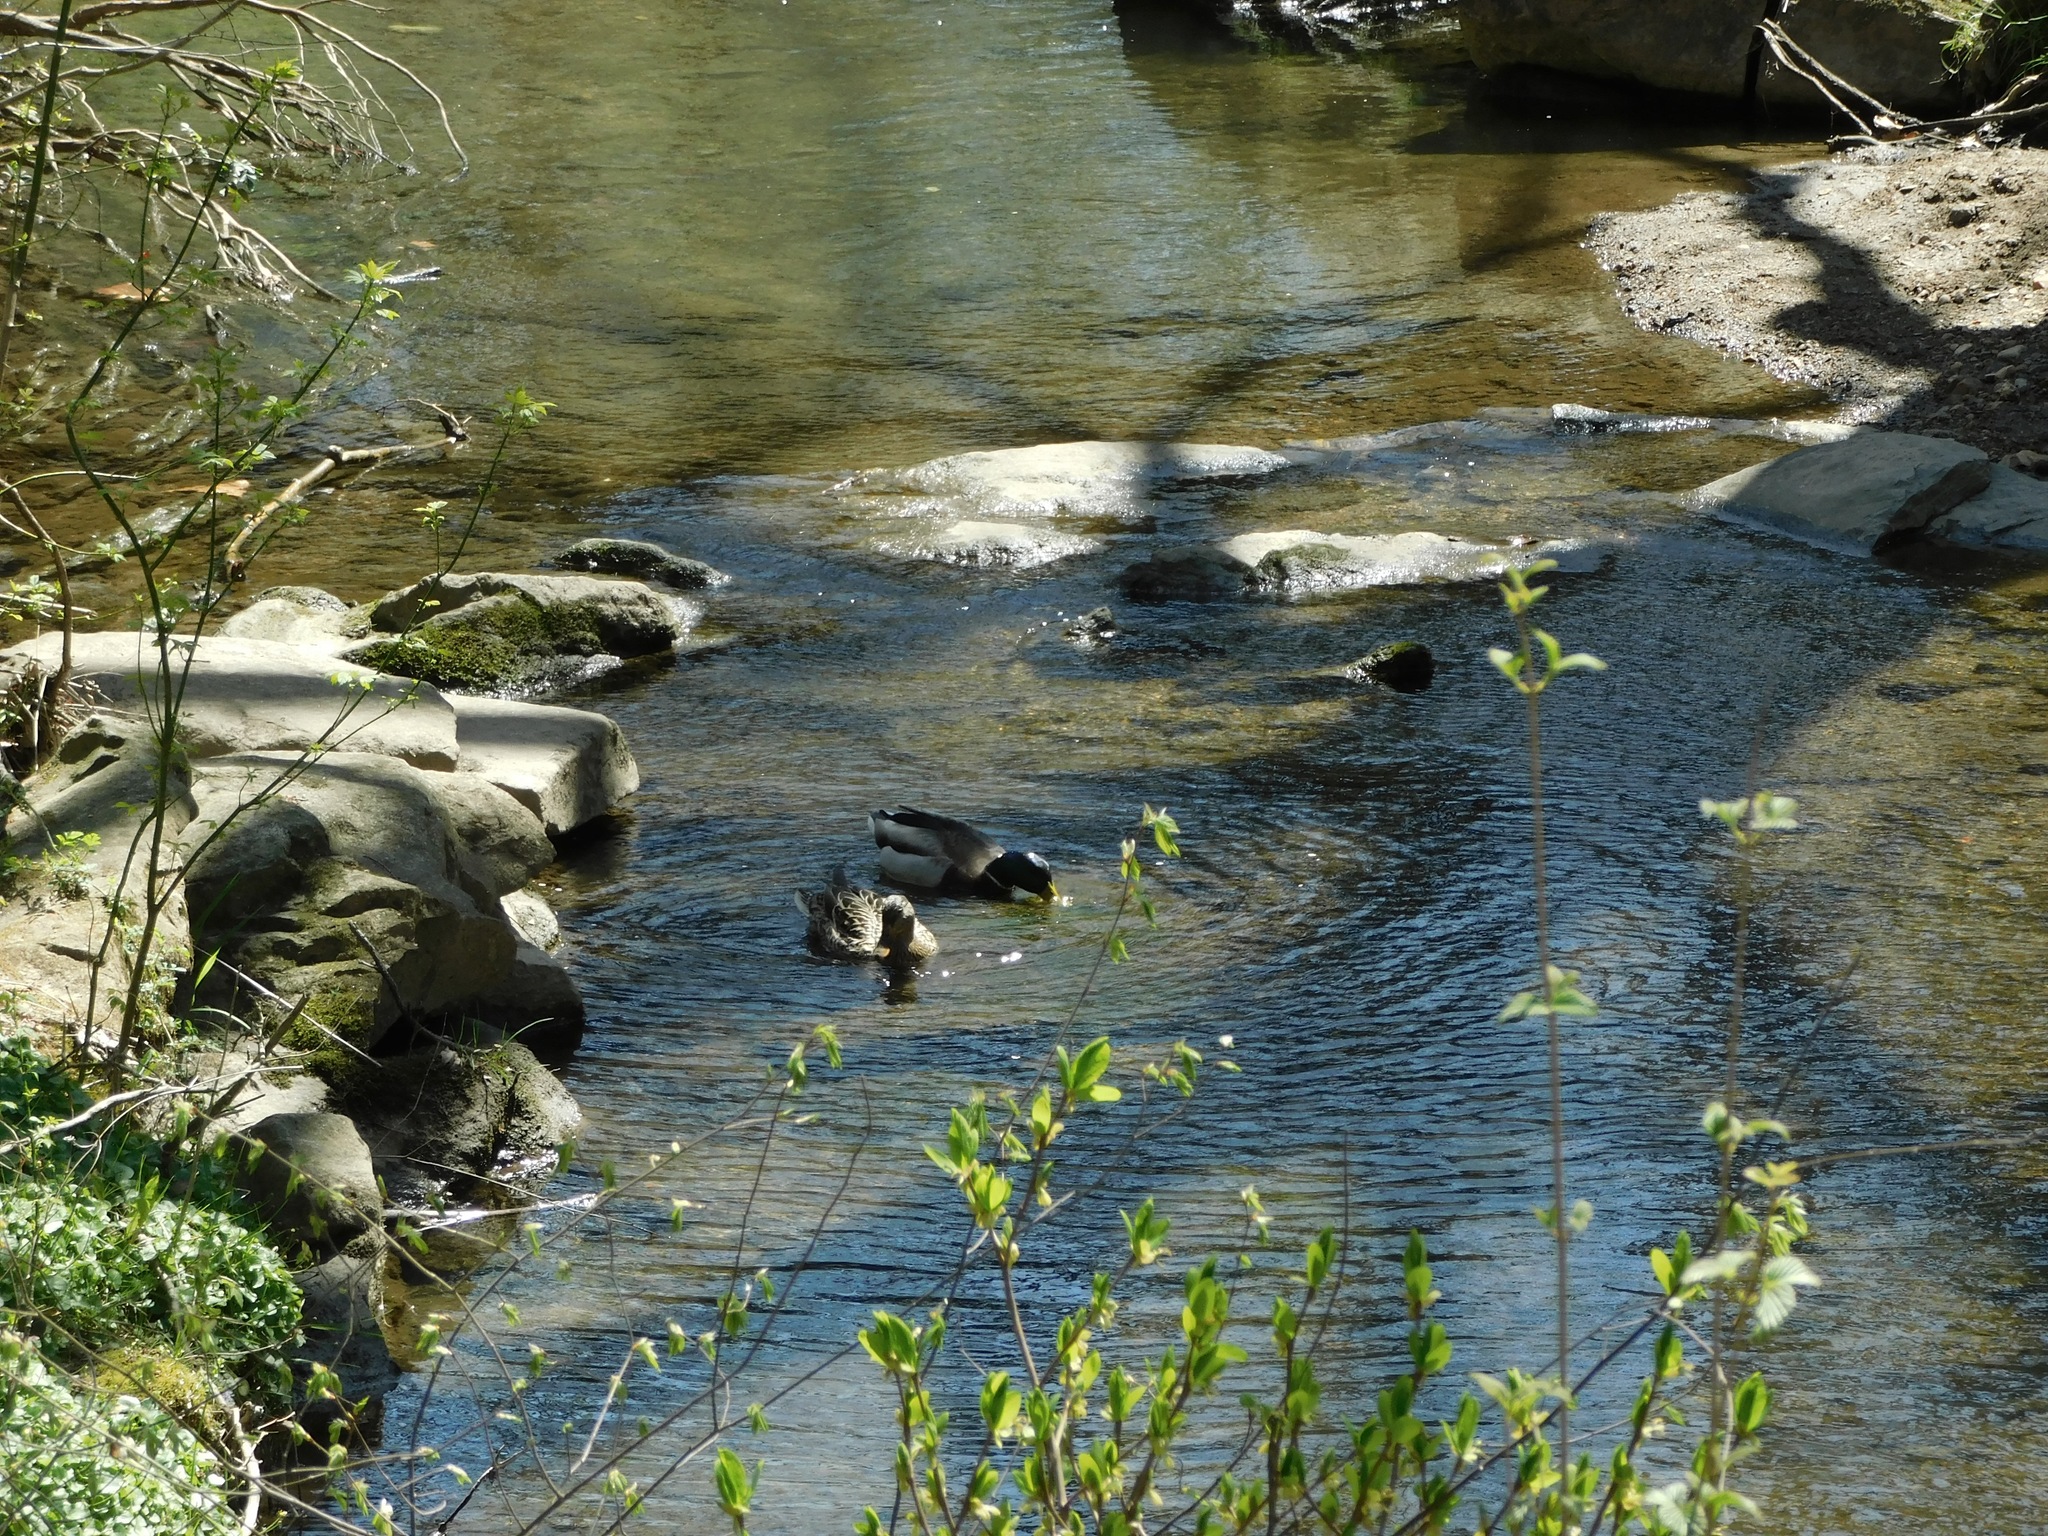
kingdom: Animalia
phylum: Chordata
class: Aves
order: Anseriformes
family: Anatidae
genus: Anas
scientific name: Anas platyrhynchos
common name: Mallard
